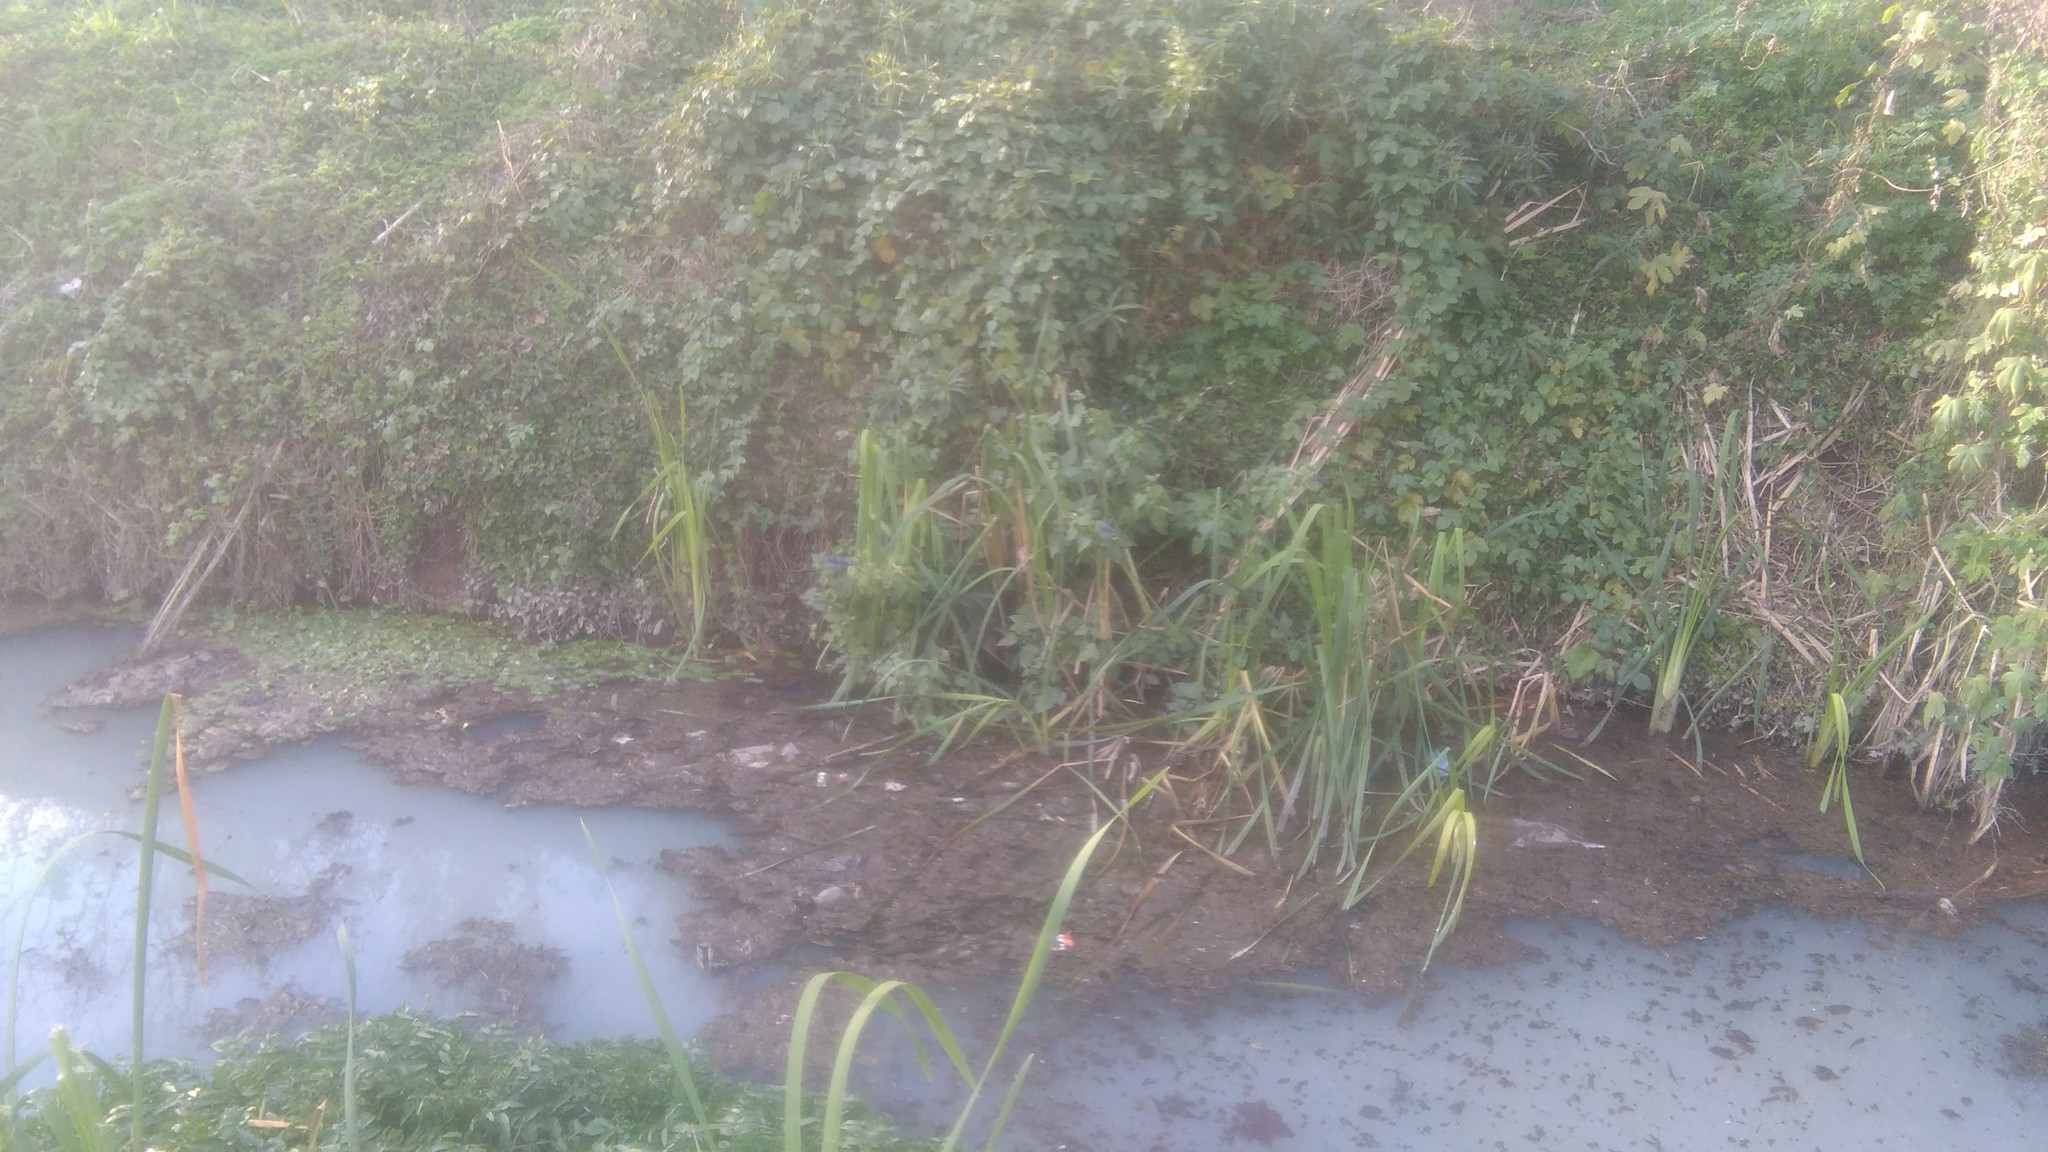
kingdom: Plantae
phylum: Tracheophyta
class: Magnoliopsida
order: Lamiales
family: Lamiaceae
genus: Salvia
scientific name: Salvia guaranitica
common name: Anise-scented sage
